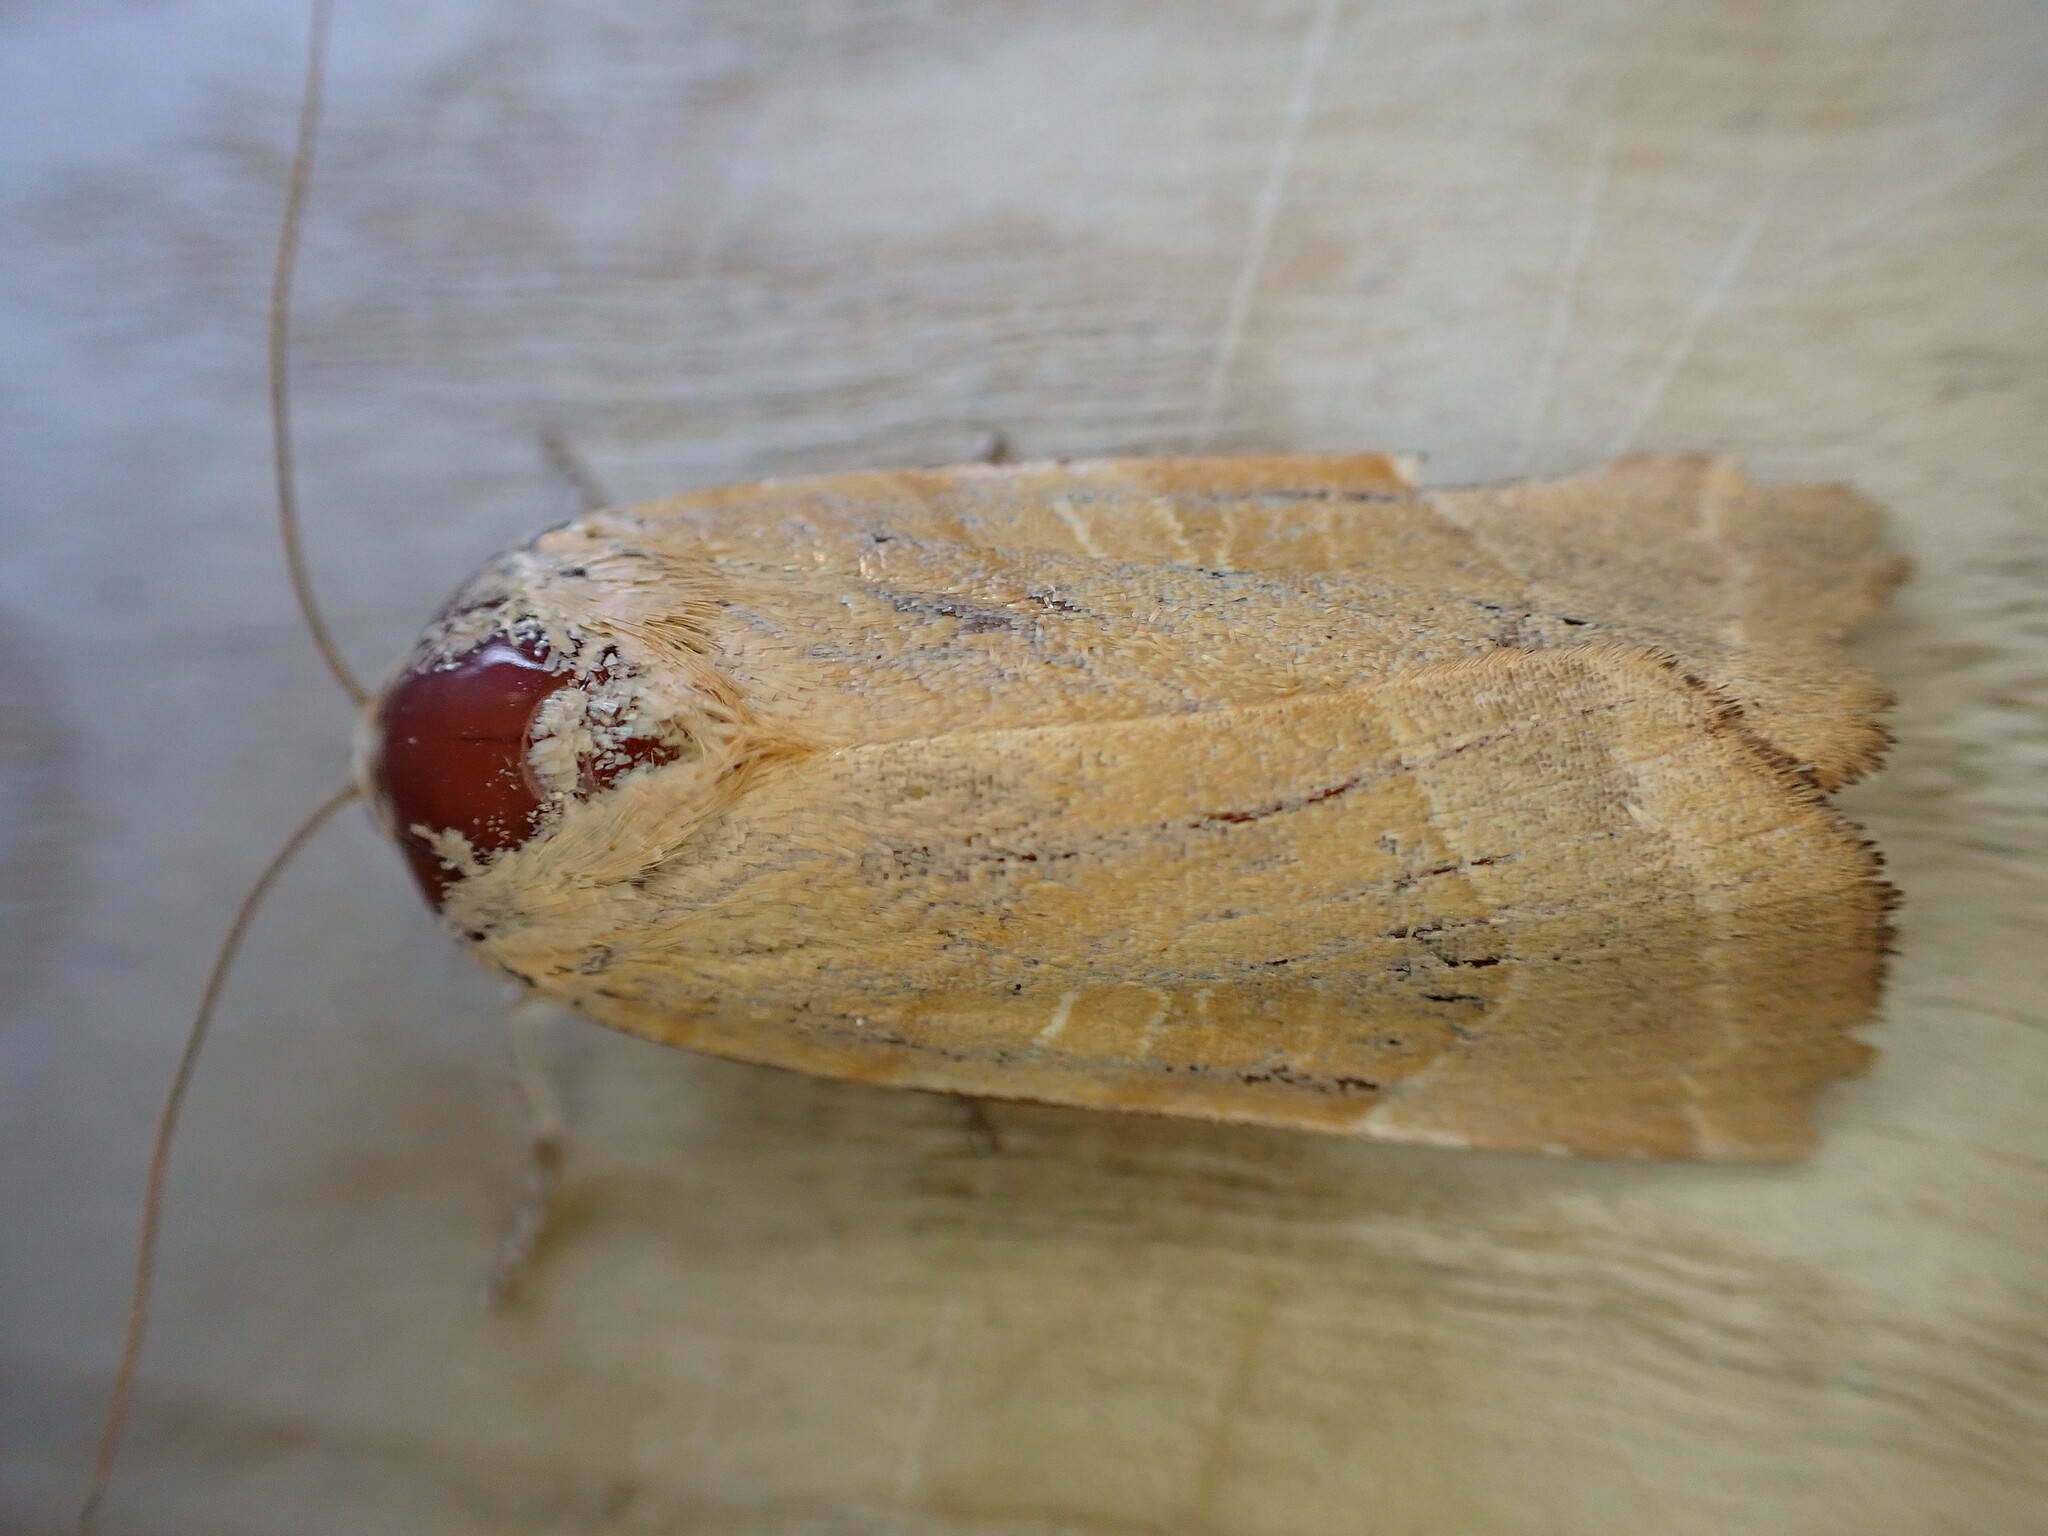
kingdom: Animalia
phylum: Arthropoda
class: Insecta
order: Lepidoptera
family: Noctuidae
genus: Noctua
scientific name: Noctua fimbriata
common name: Broad-bordered yellow underwing
